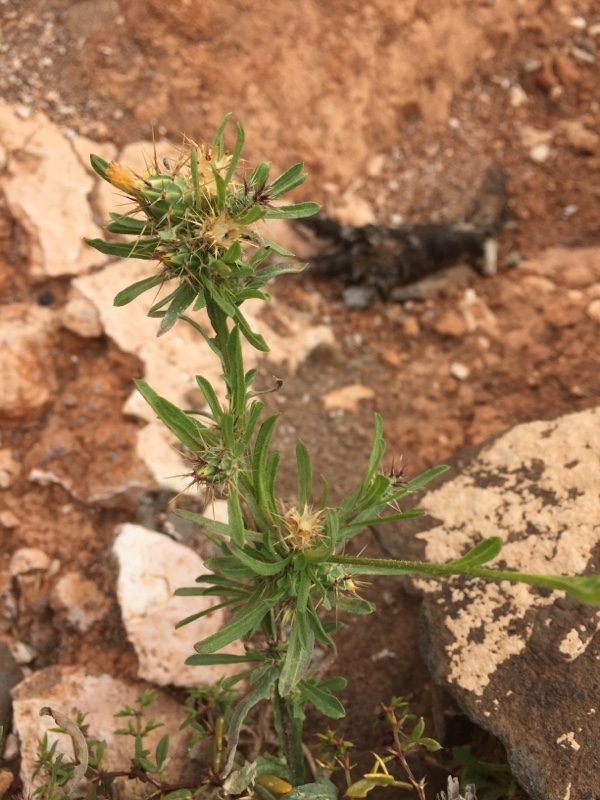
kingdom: Plantae
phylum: Tracheophyta
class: Magnoliopsida
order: Asterales
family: Asteraceae
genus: Centaurea
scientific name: Centaurea melitensis
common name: Maltese star-thistle
